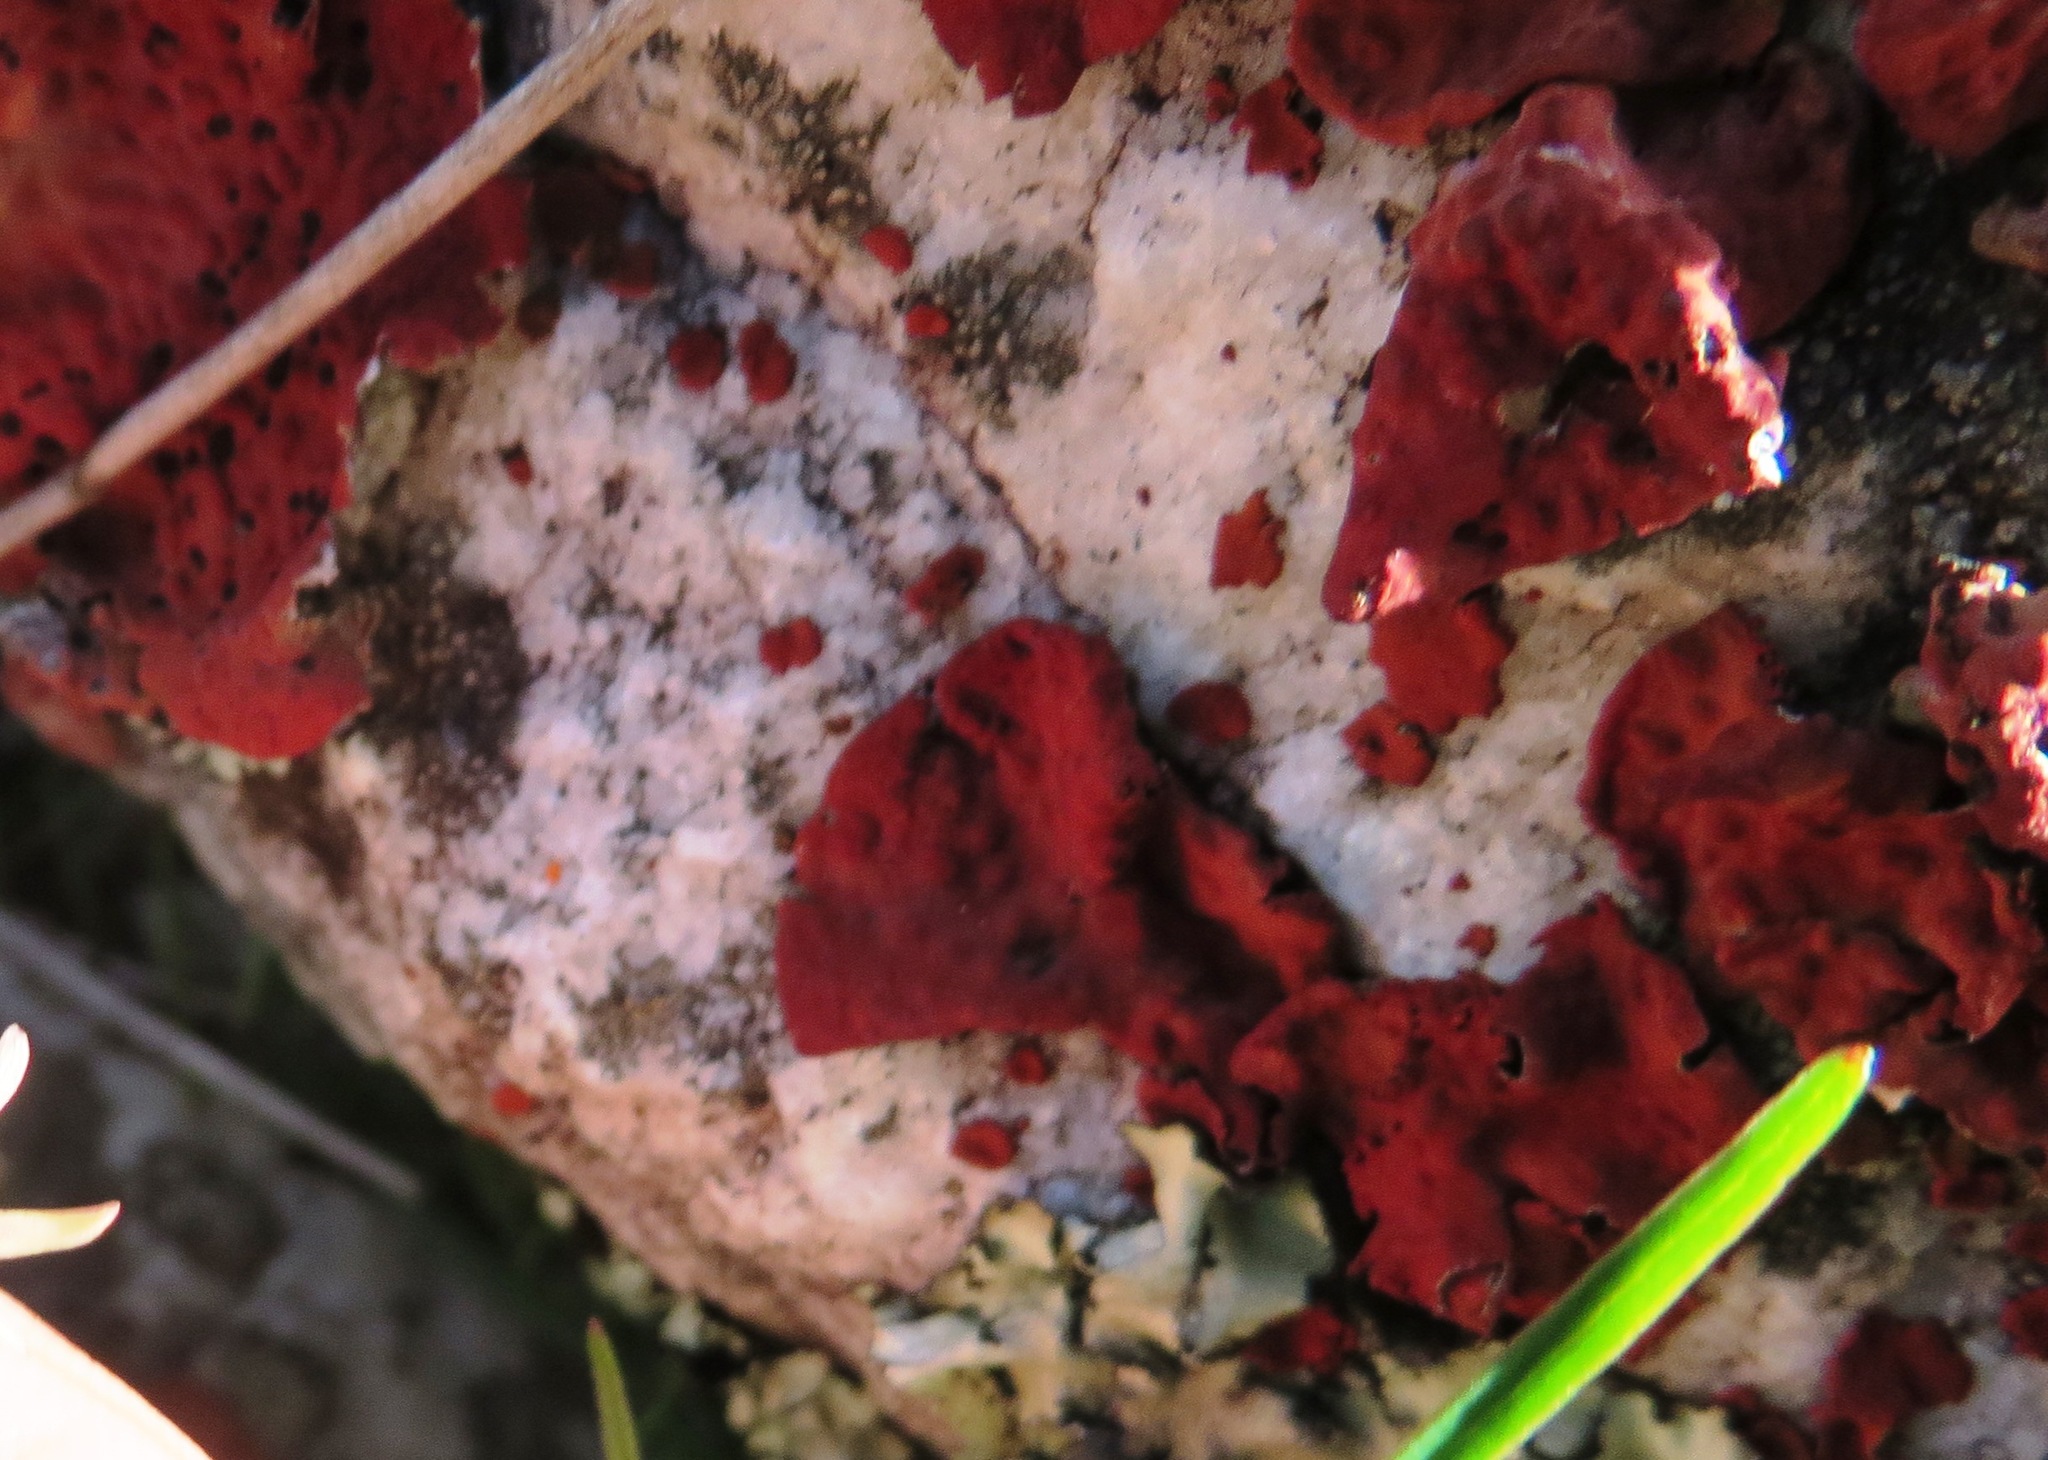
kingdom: Fungi
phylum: Ascomycota
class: Lecanoromycetes
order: Umbilicariales
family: Umbilicariaceae
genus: Lasallia
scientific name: Lasallia rubiginosa
